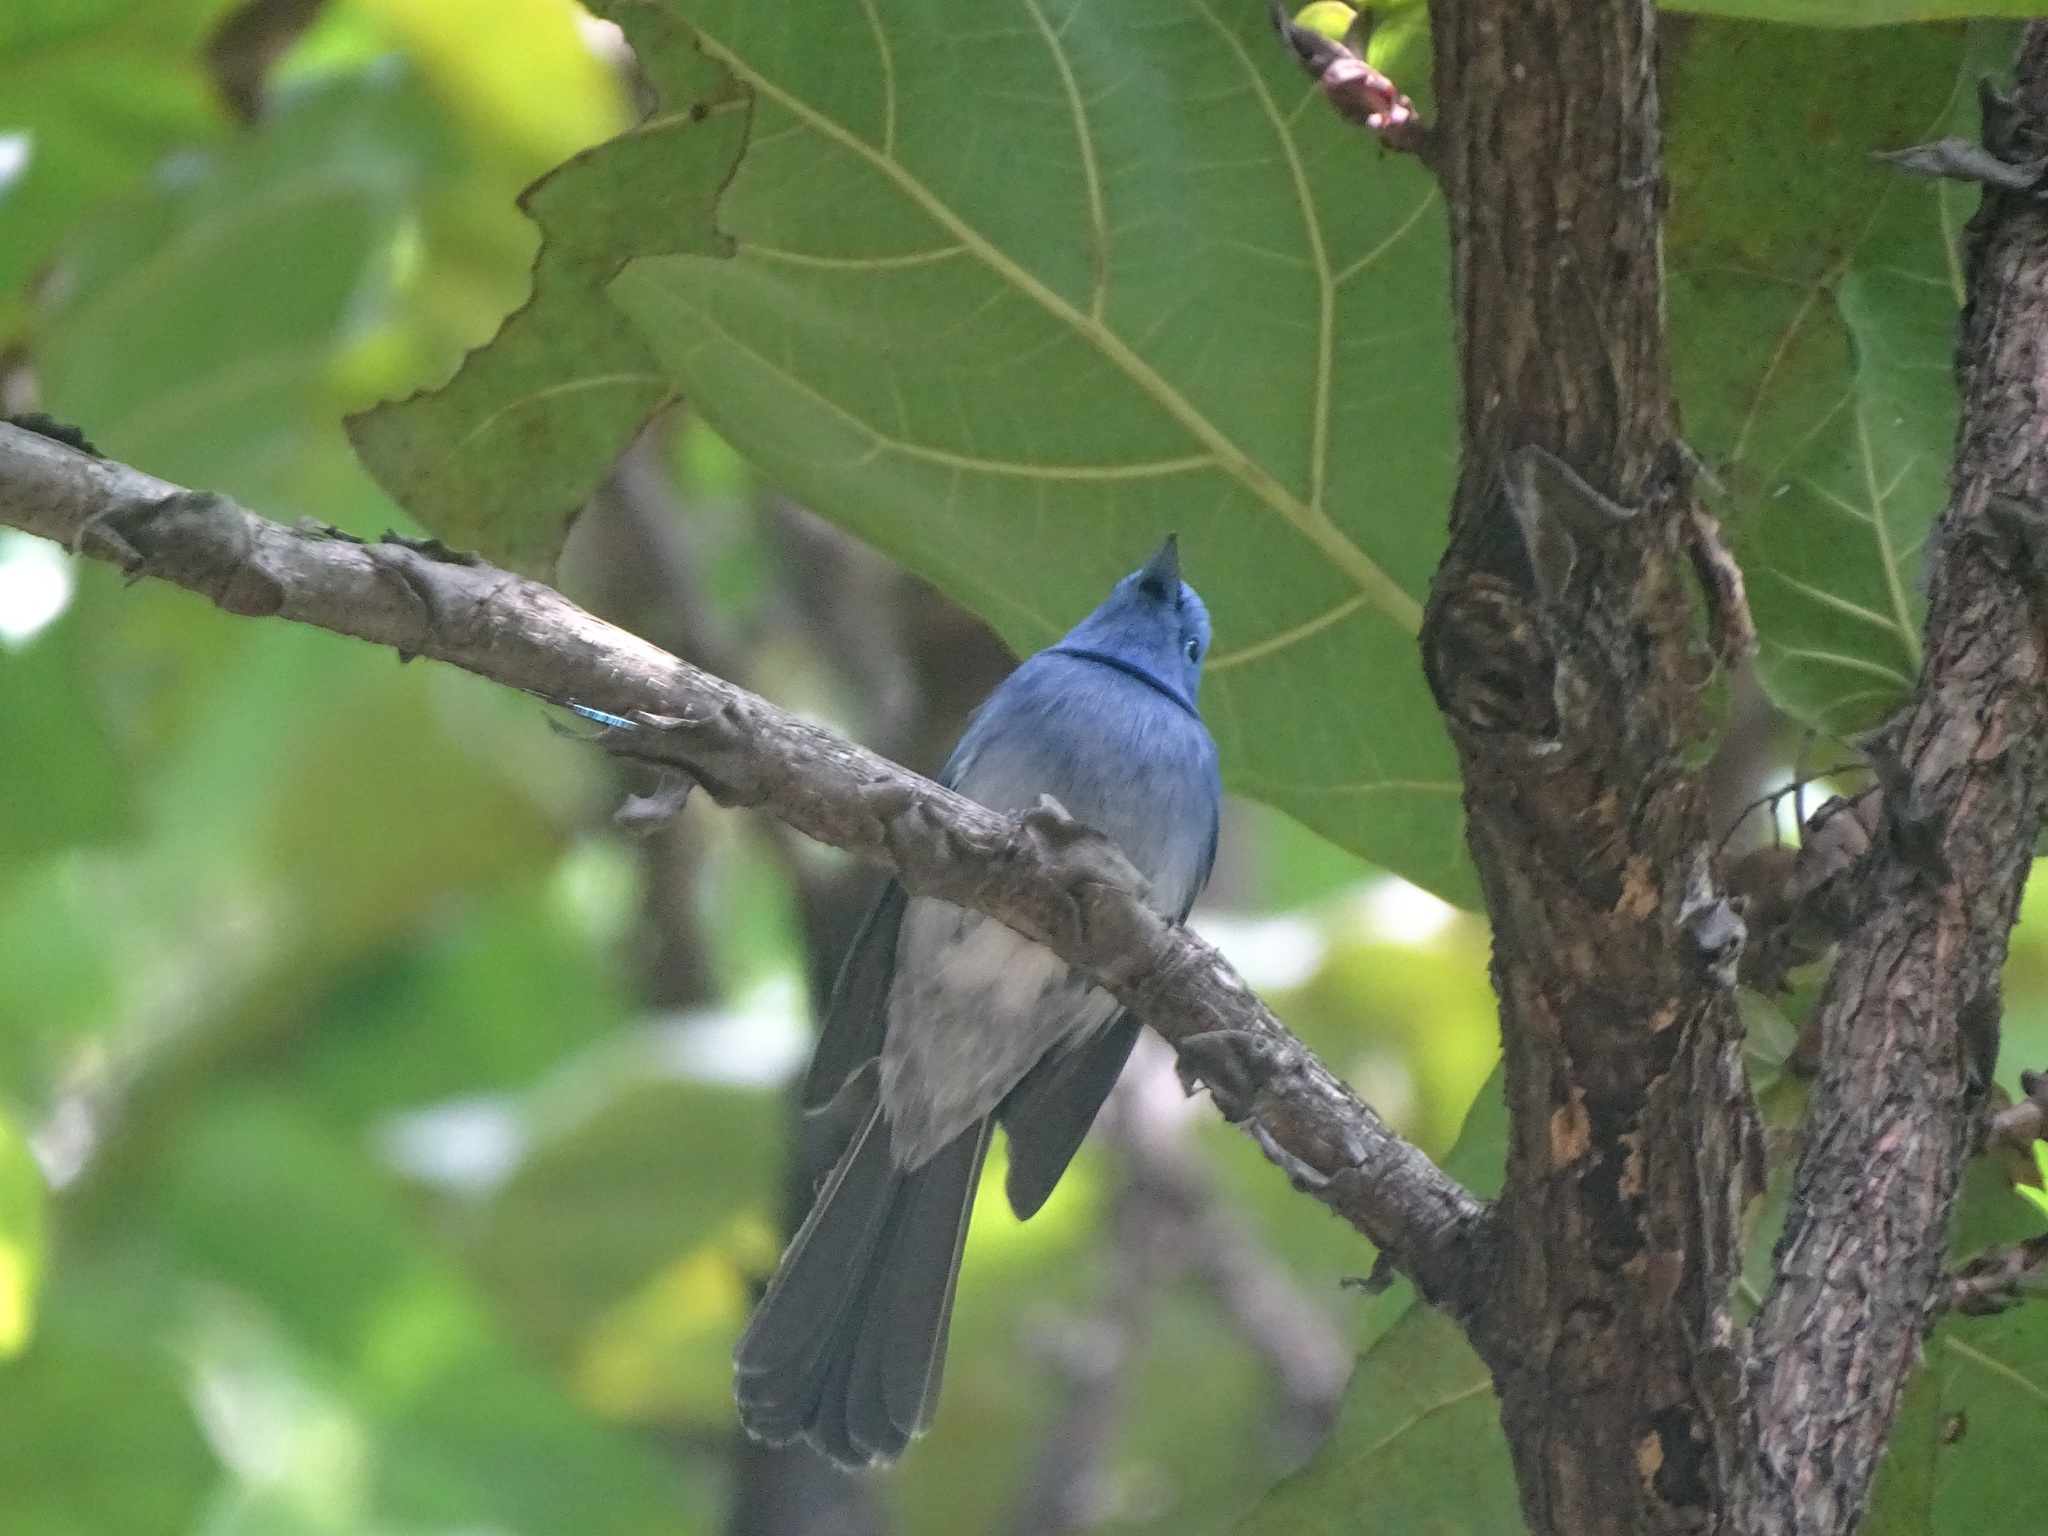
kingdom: Animalia
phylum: Chordata
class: Aves
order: Passeriformes
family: Monarchidae
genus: Hypothymis
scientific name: Hypothymis azurea
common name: Black-naped monarch
